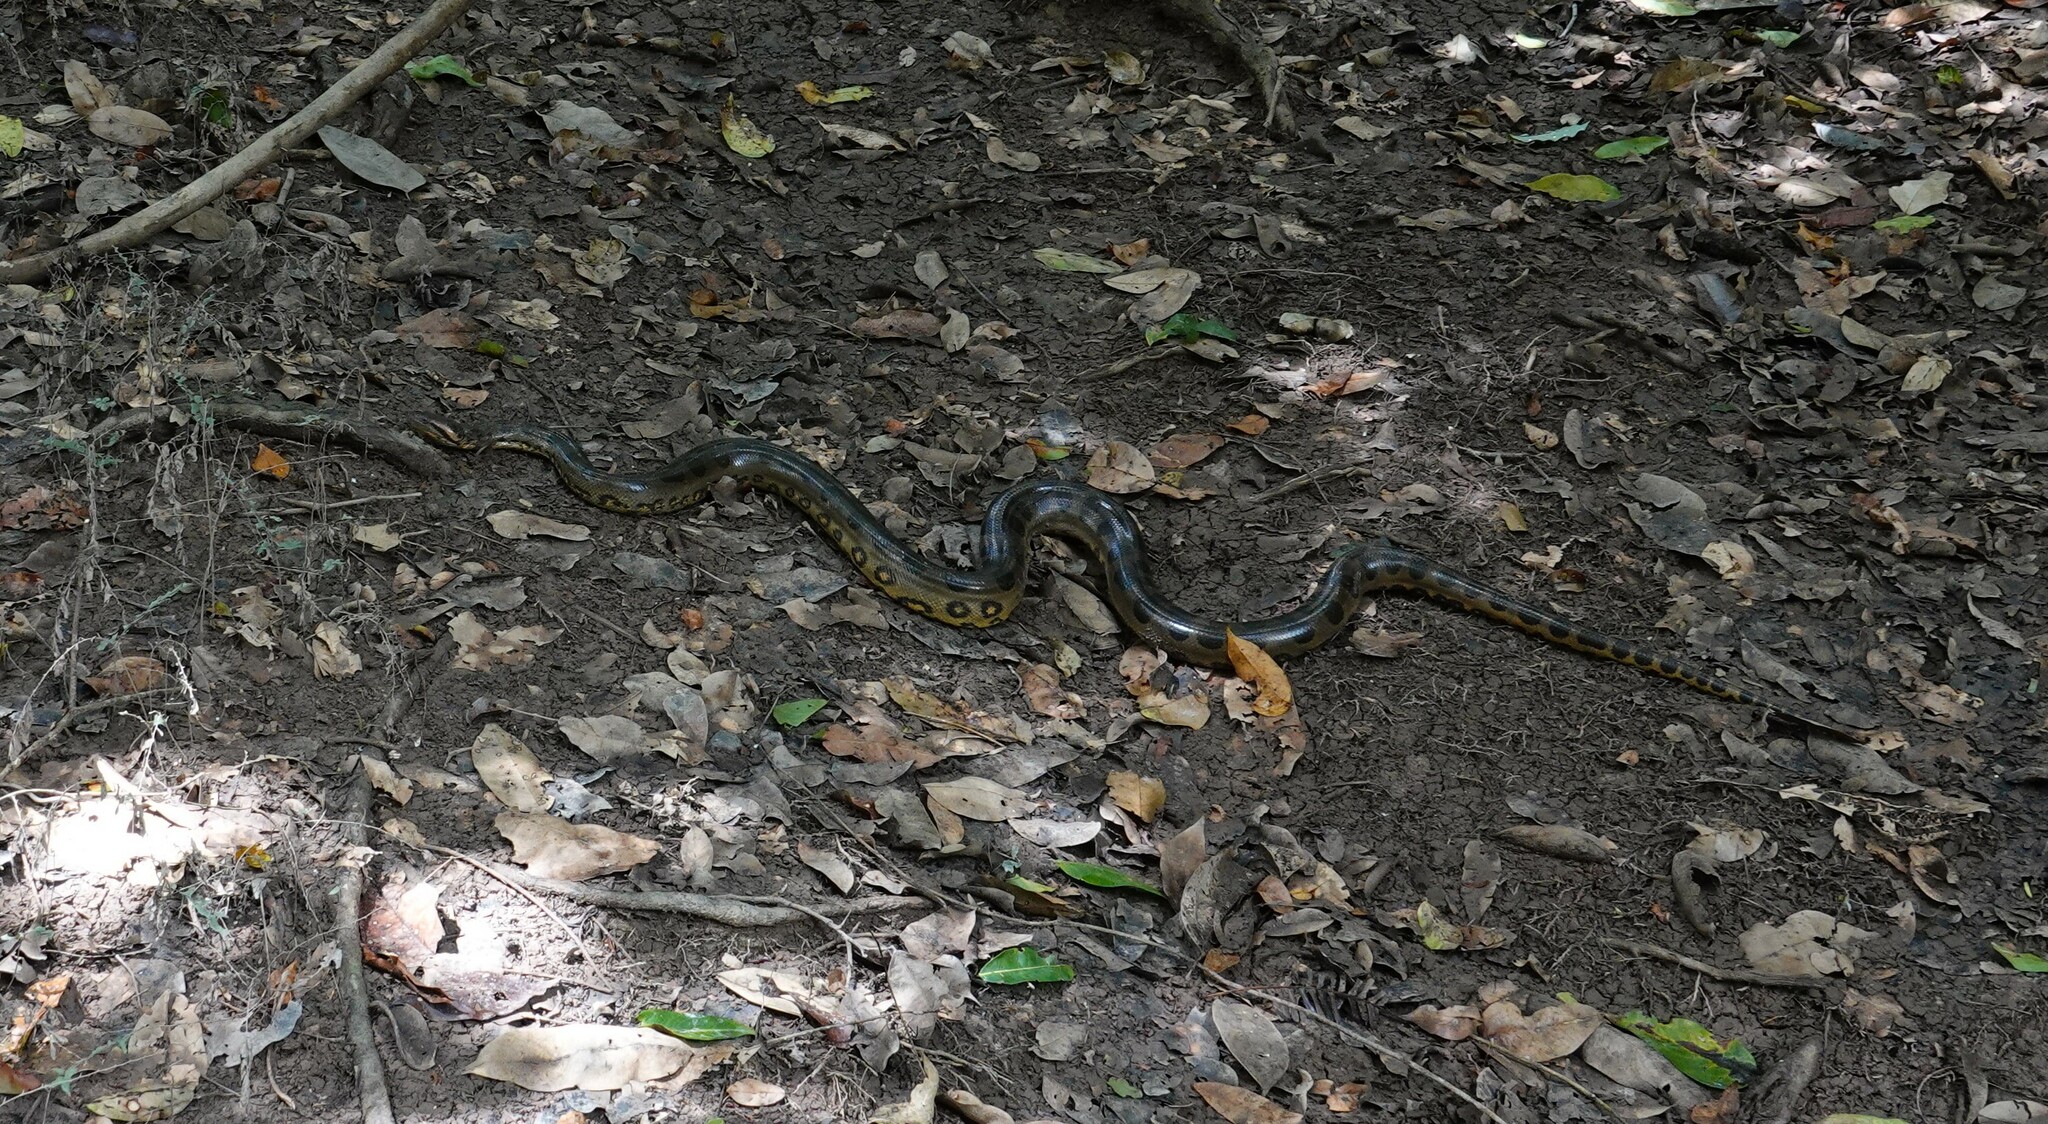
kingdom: Animalia
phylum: Chordata
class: Squamata
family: Boidae
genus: Eunectes
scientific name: Eunectes murinus
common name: Anaconda
